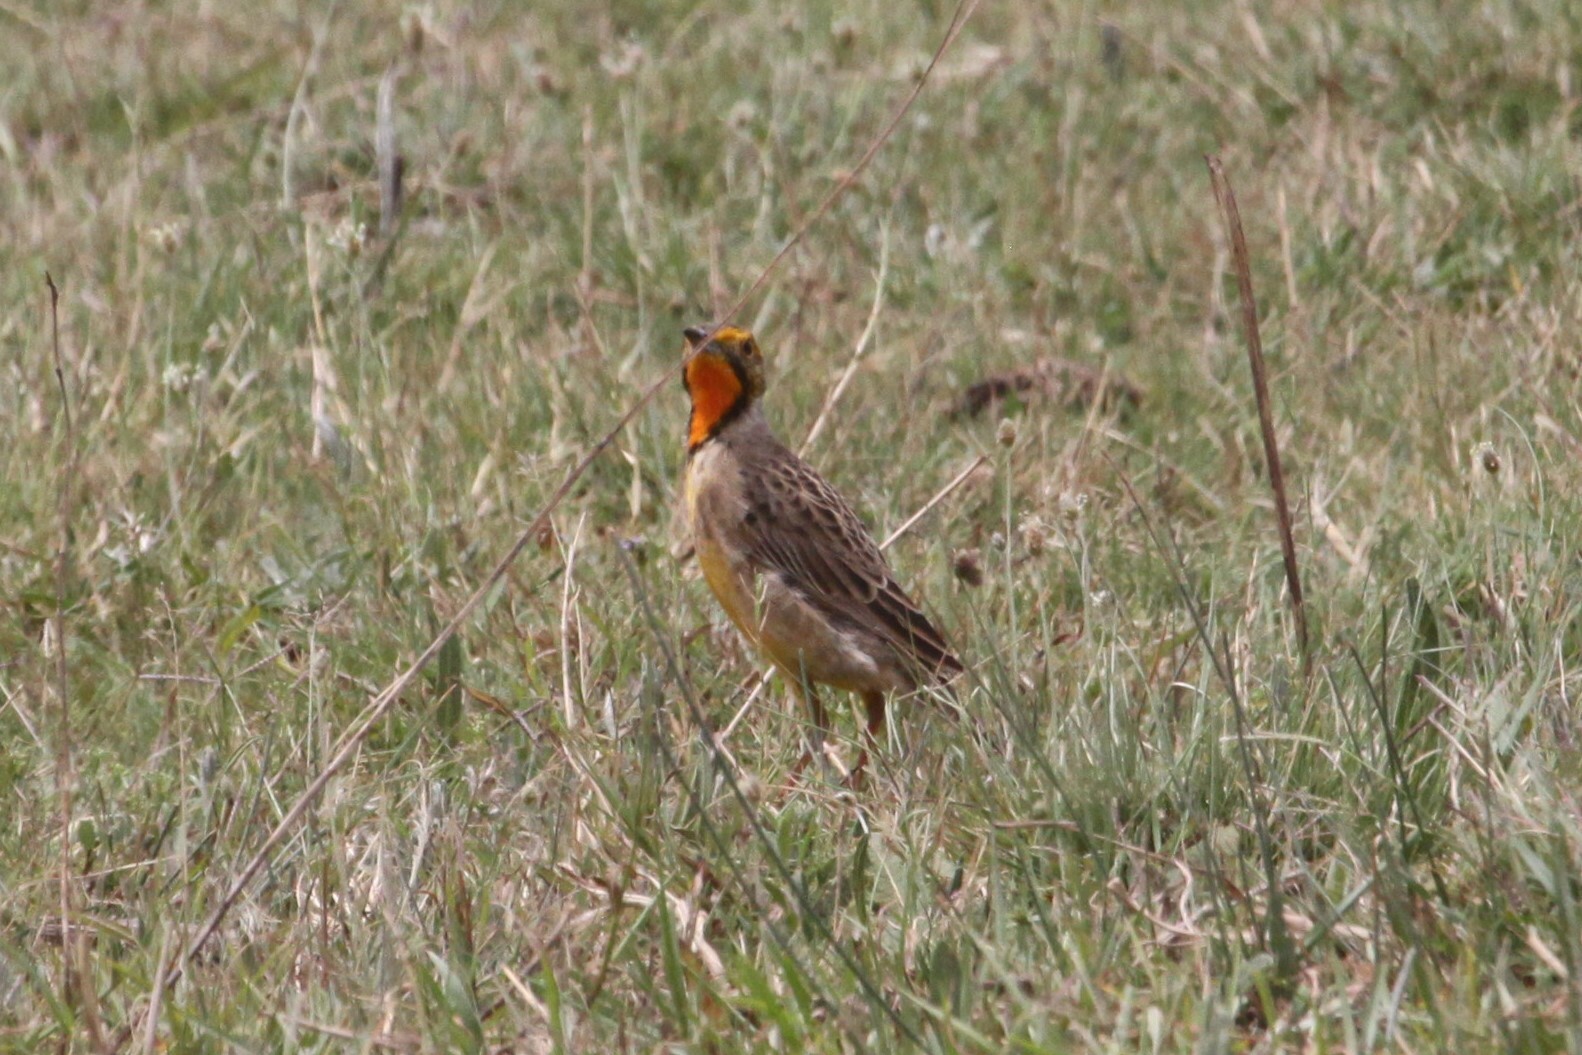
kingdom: Animalia
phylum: Chordata
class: Aves
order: Passeriformes
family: Motacillidae
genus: Macronyx
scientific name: Macronyx capensis
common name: Cape longclaw
